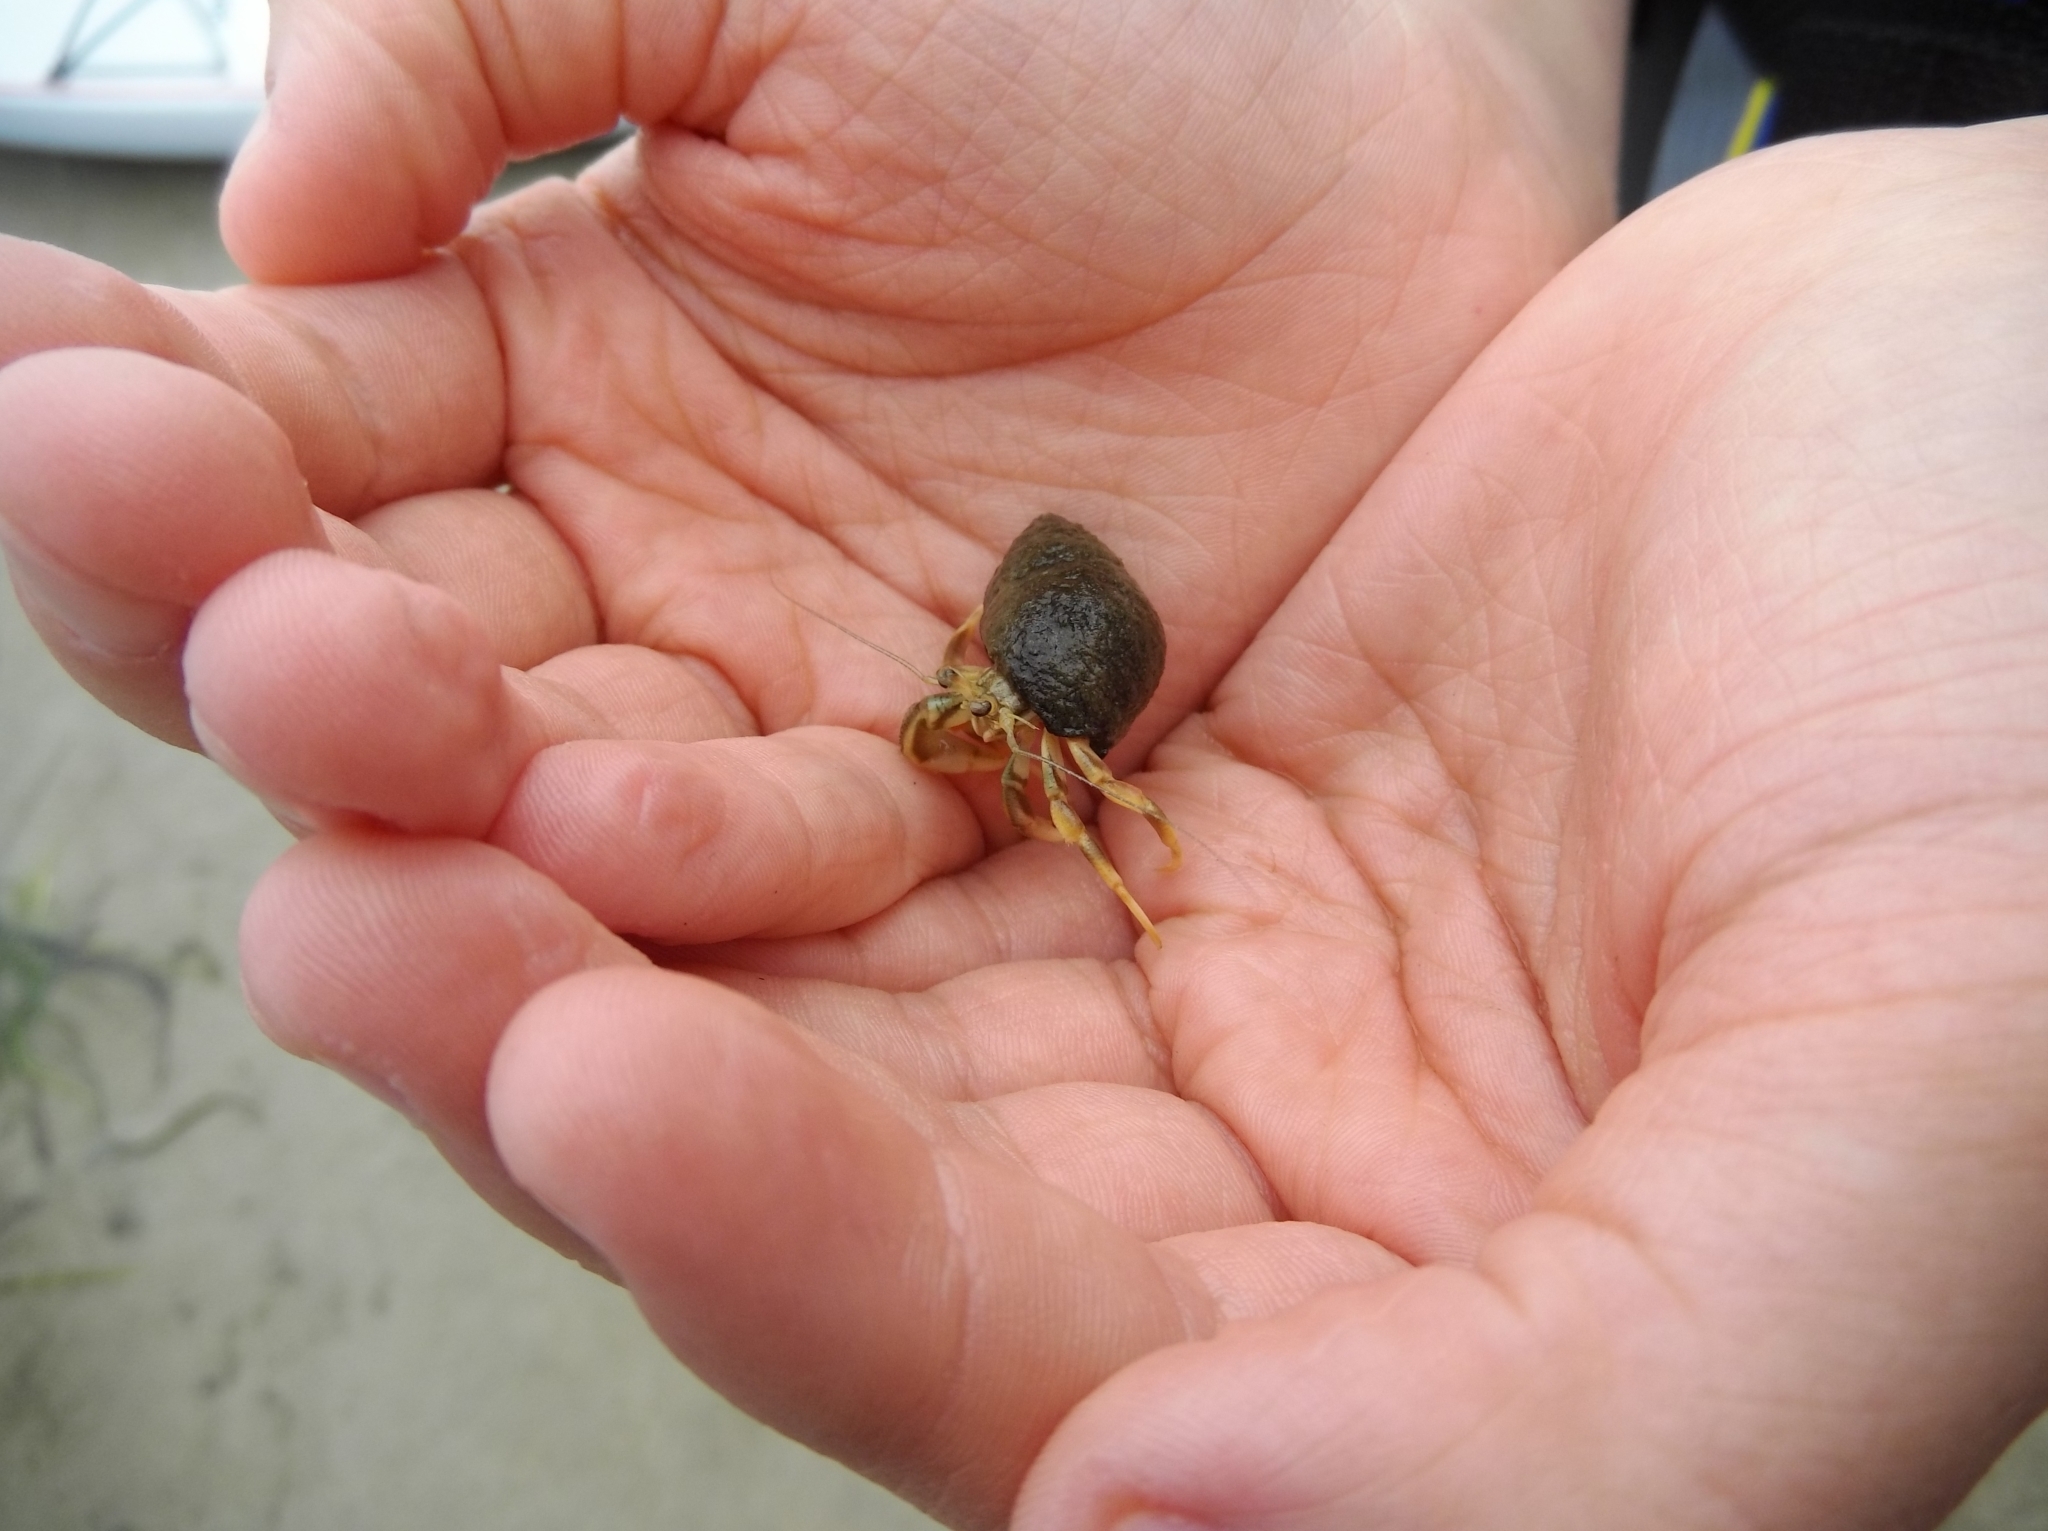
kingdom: Animalia
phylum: Arthropoda
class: Malacostraca
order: Decapoda
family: Paguridae
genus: Pagurus
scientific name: Pagurus longicarpus
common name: Long-armed hermit crab
